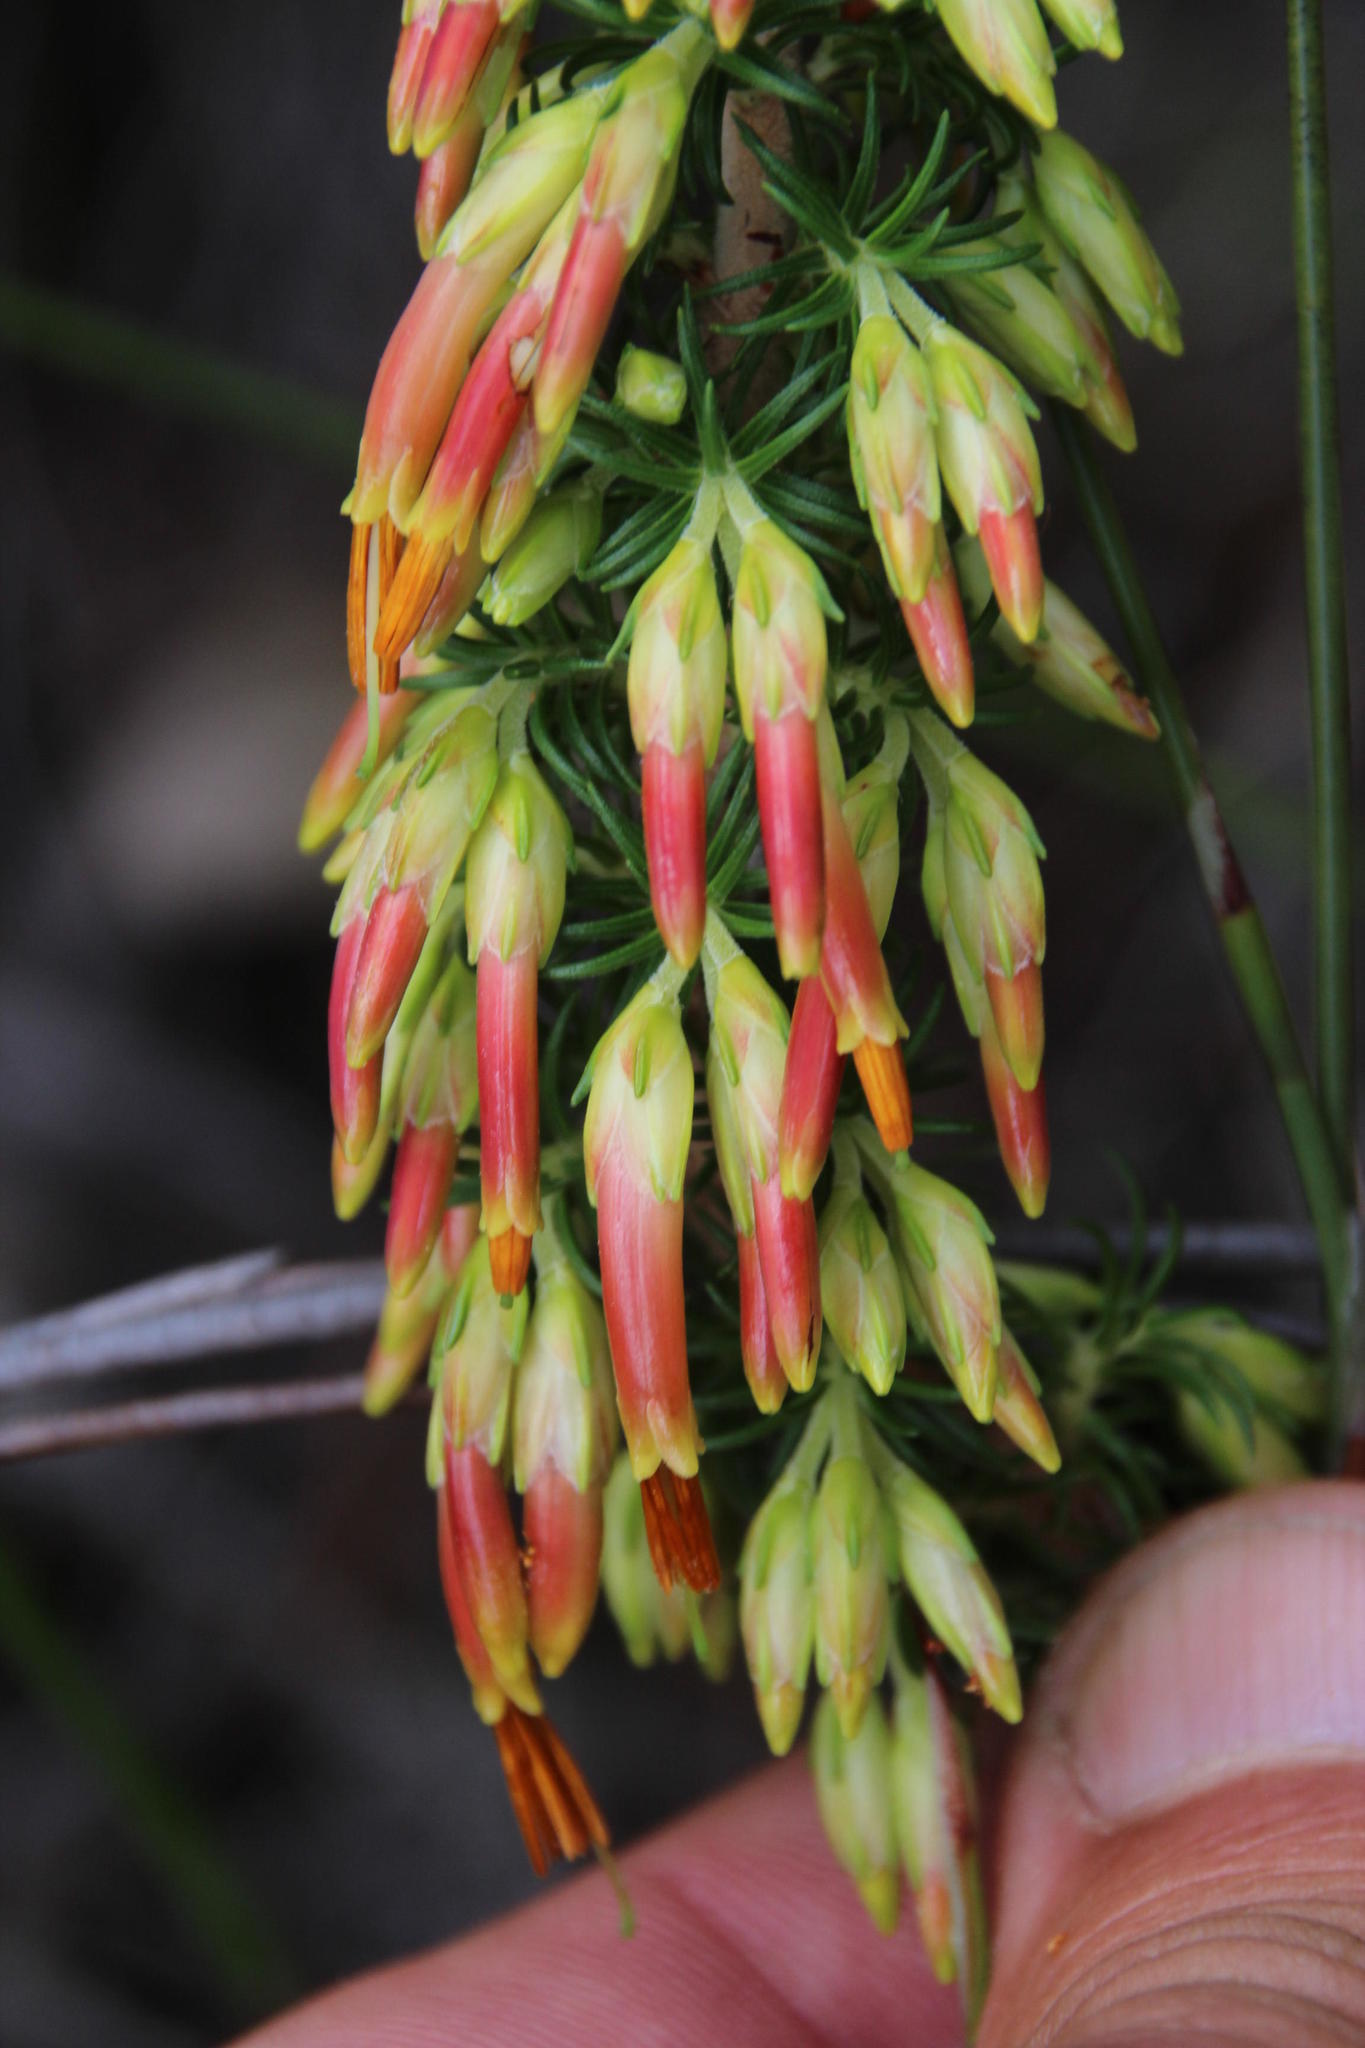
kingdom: Plantae
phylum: Tracheophyta
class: Magnoliopsida
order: Ericales
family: Ericaceae
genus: Erica
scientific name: Erica coccinea
